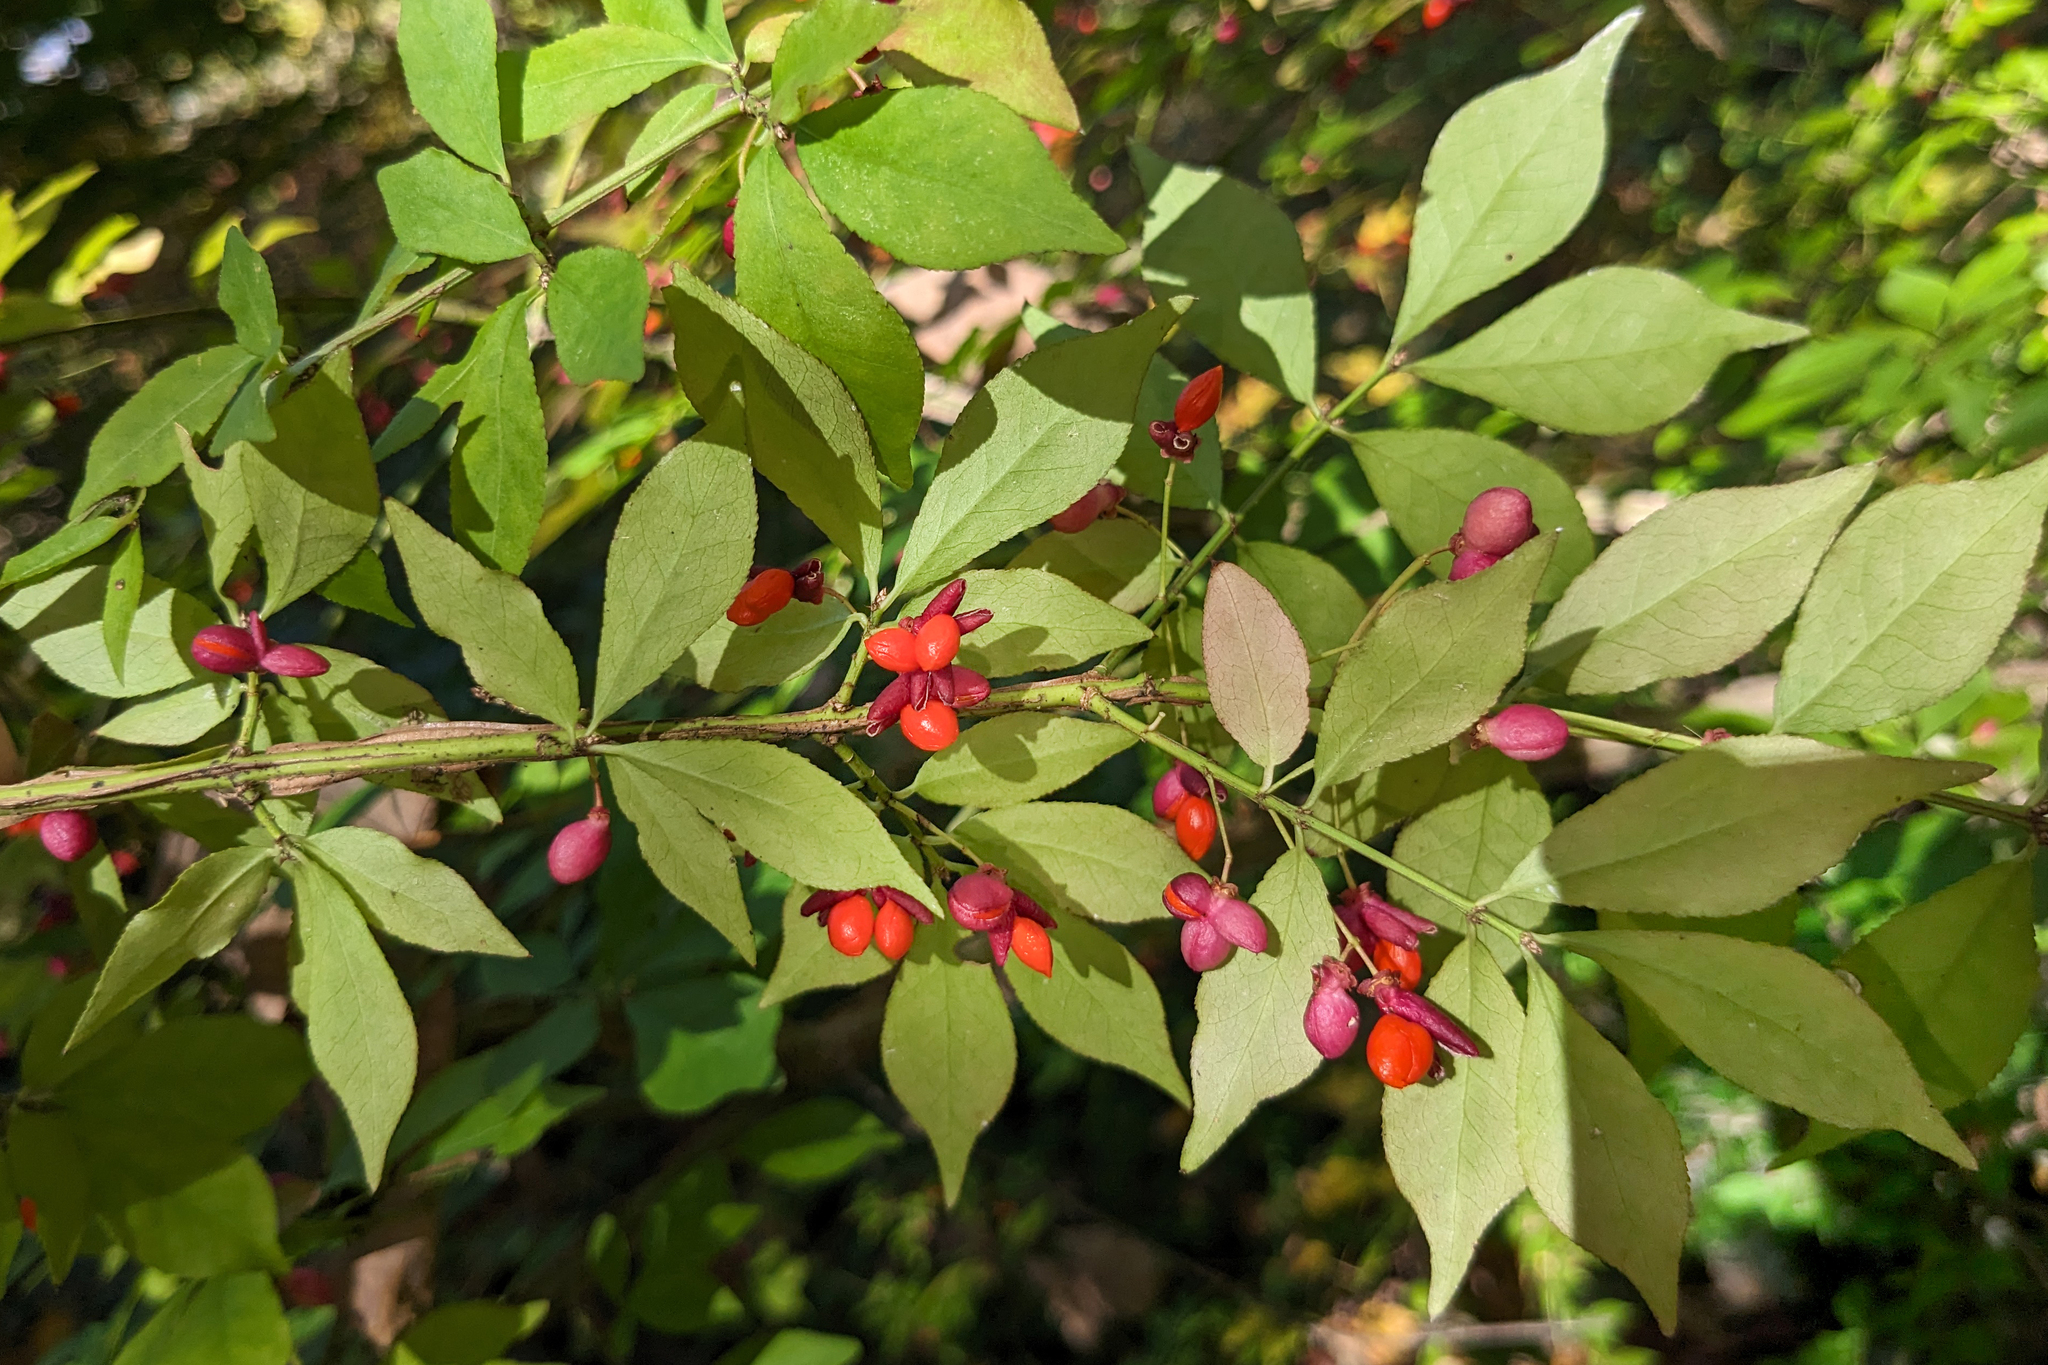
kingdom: Plantae
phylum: Tracheophyta
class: Magnoliopsida
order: Celastrales
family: Celastraceae
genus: Euonymus
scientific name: Euonymus alatus
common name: Winged euonymus
